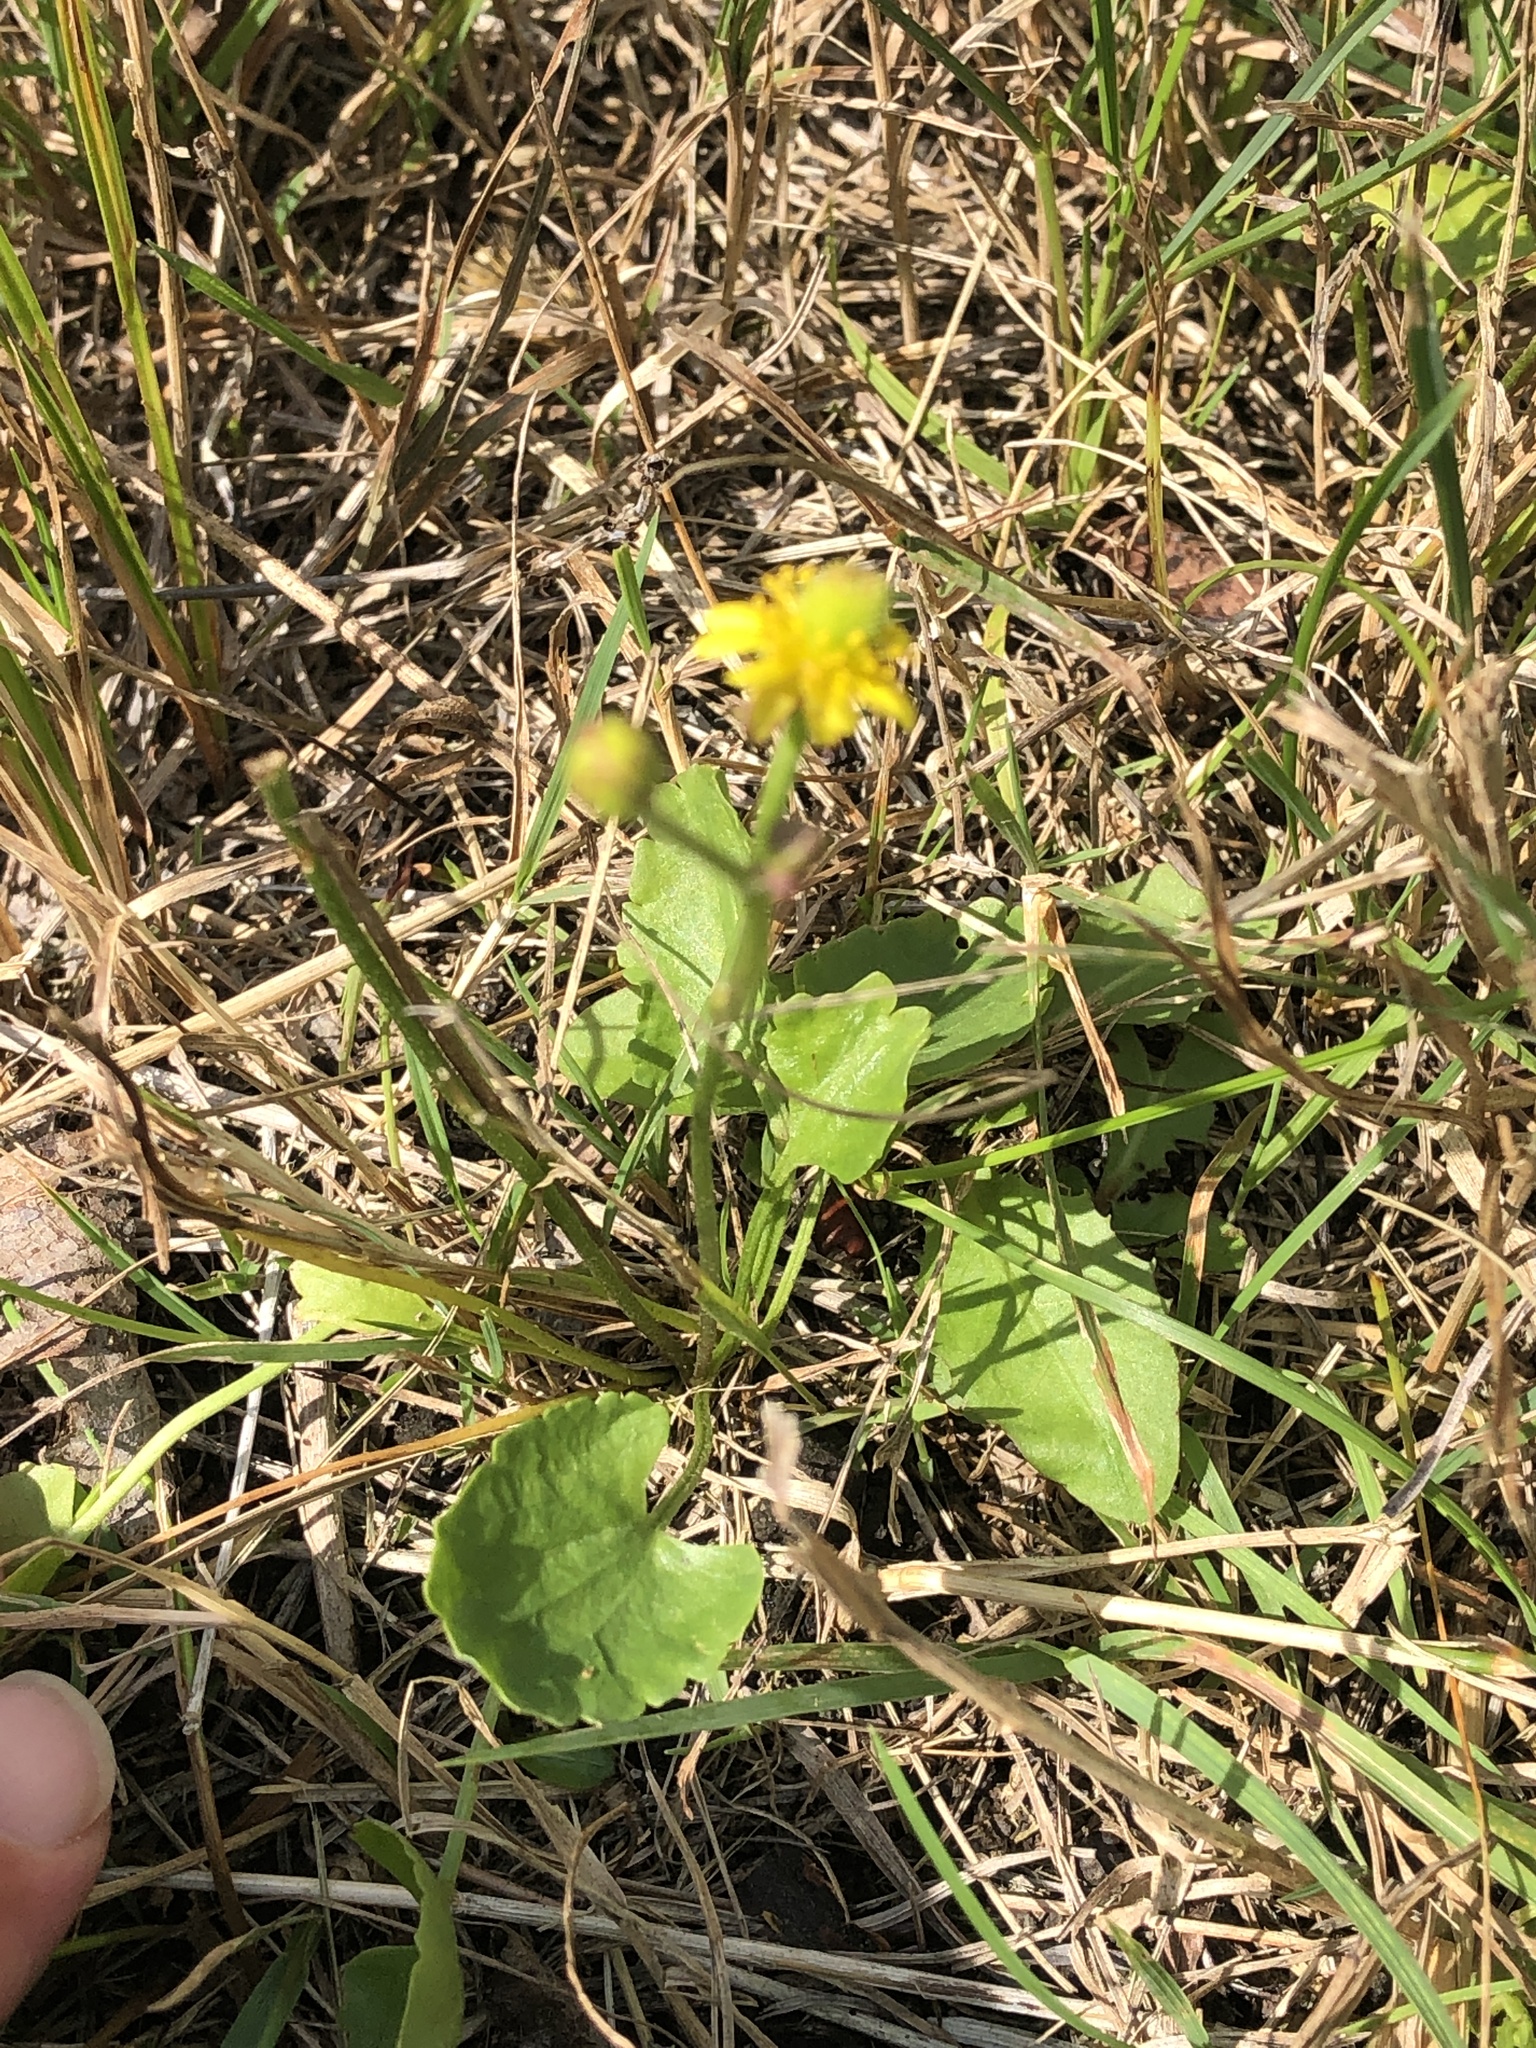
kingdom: Plantae
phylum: Tracheophyta
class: Magnoliopsida
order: Ranunculales
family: Ranunculaceae
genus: Halerpestes
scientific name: Halerpestes cymbalaria
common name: Seaside crowfoot
